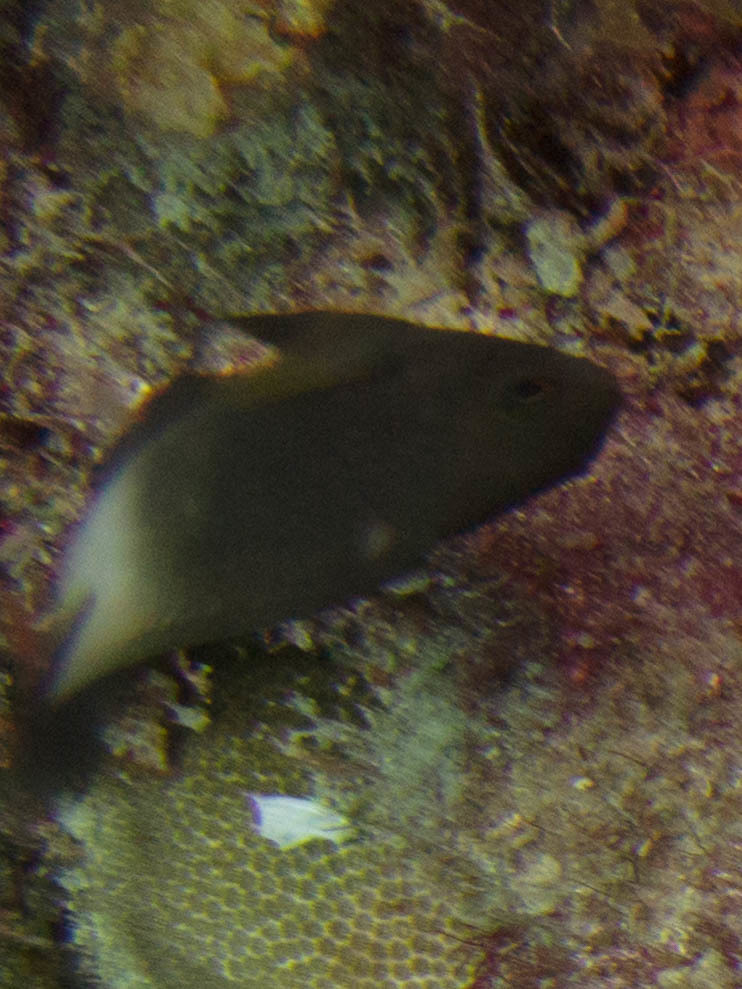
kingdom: Animalia
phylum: Chordata
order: Perciformes
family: Pomacentridae
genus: Stegastes
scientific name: Stegastes partitus
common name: Bicolor damselfish
